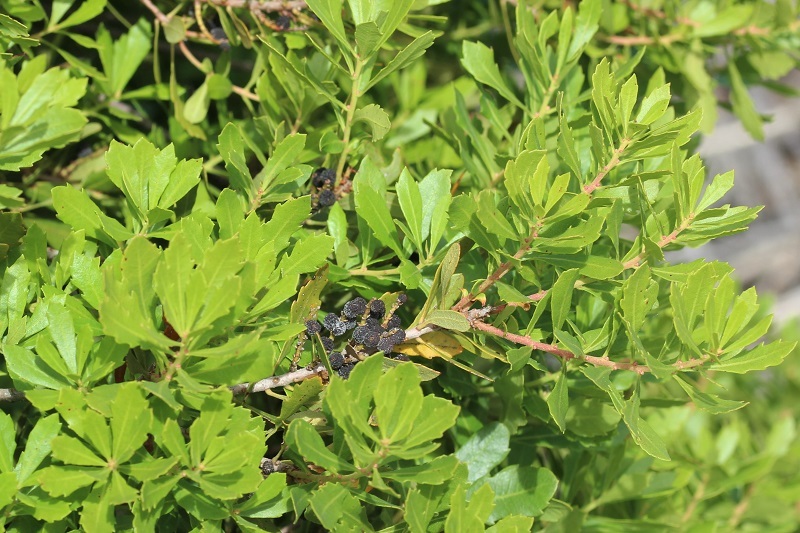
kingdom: Plantae
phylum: Tracheophyta
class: Magnoliopsida
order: Fagales
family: Myricaceae
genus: Morella
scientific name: Morella diversifolia
